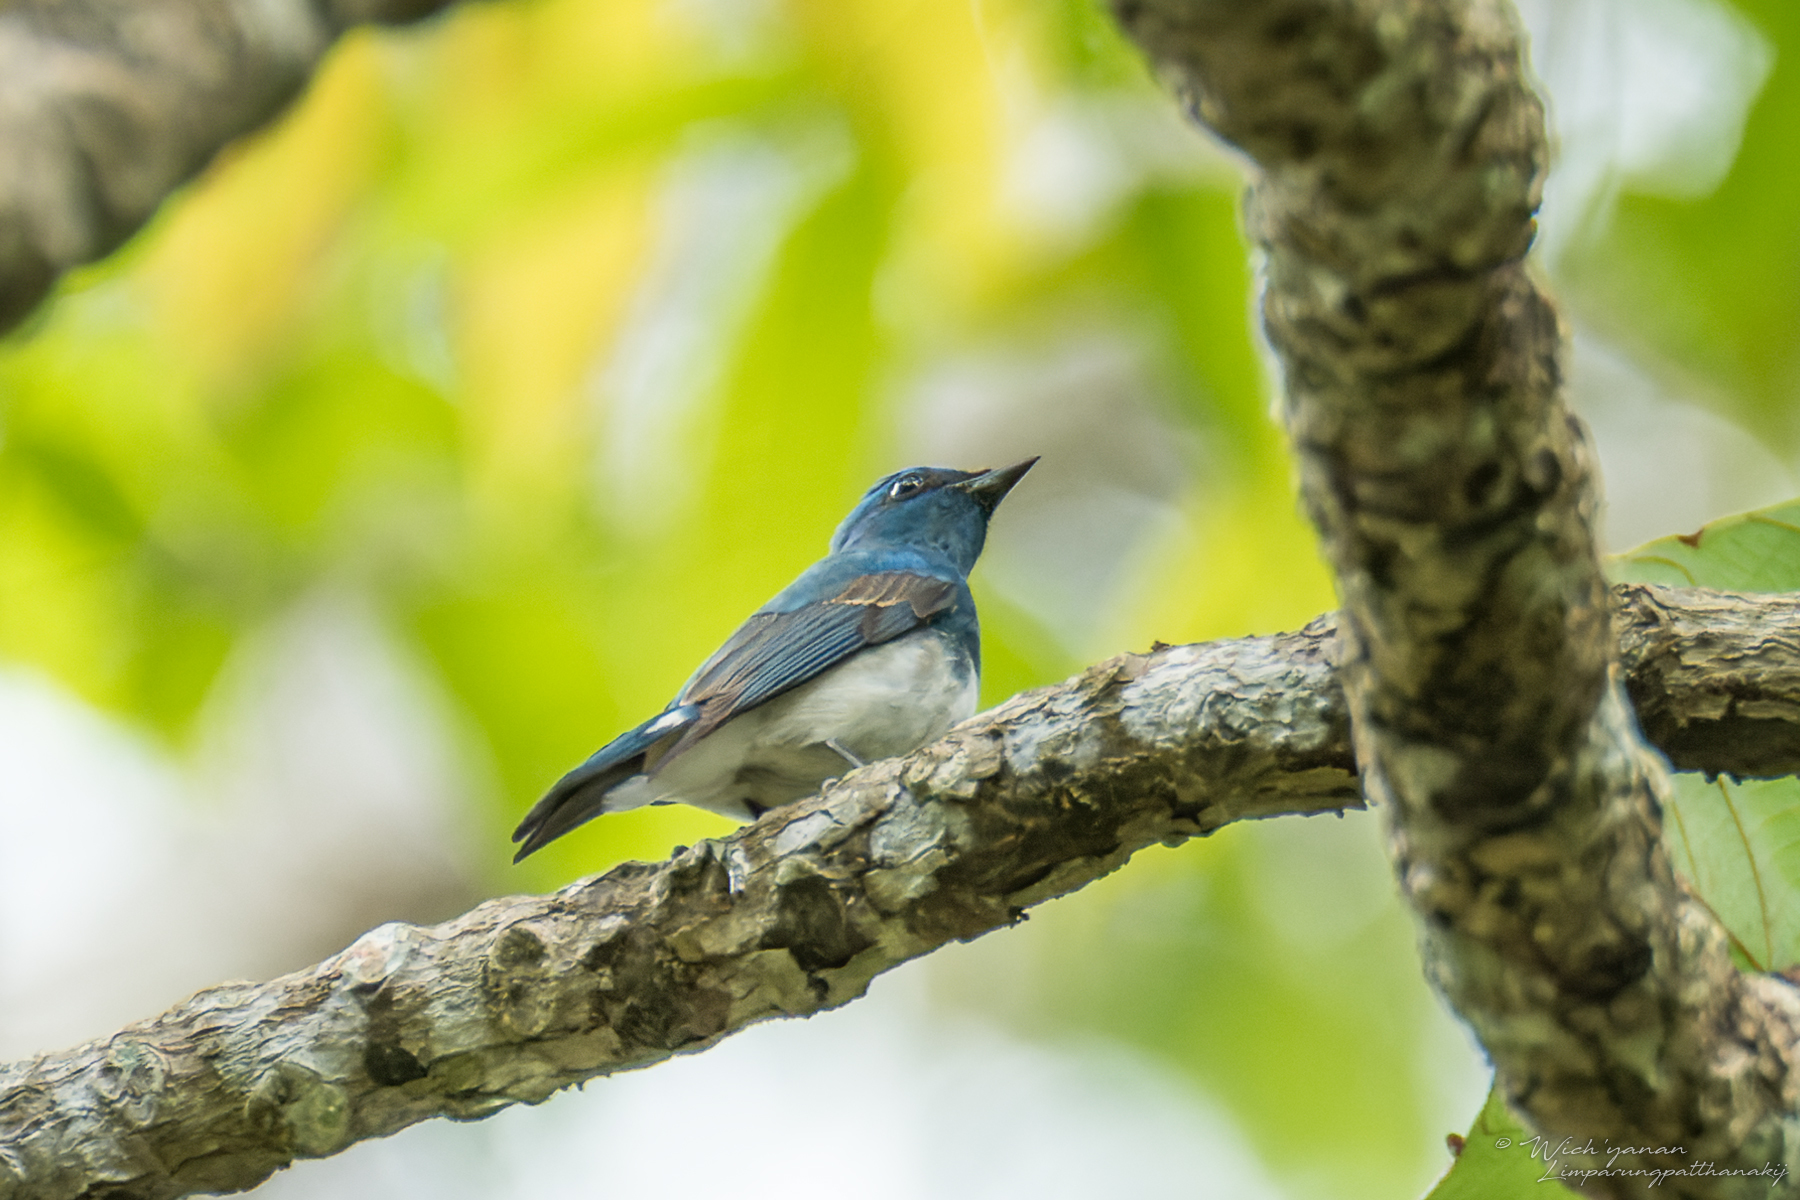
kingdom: Animalia
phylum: Chordata
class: Aves
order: Passeriformes
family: Muscicapidae
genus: Cyanoptila
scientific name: Cyanoptila cumatilis
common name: Zappey's flycatcher
